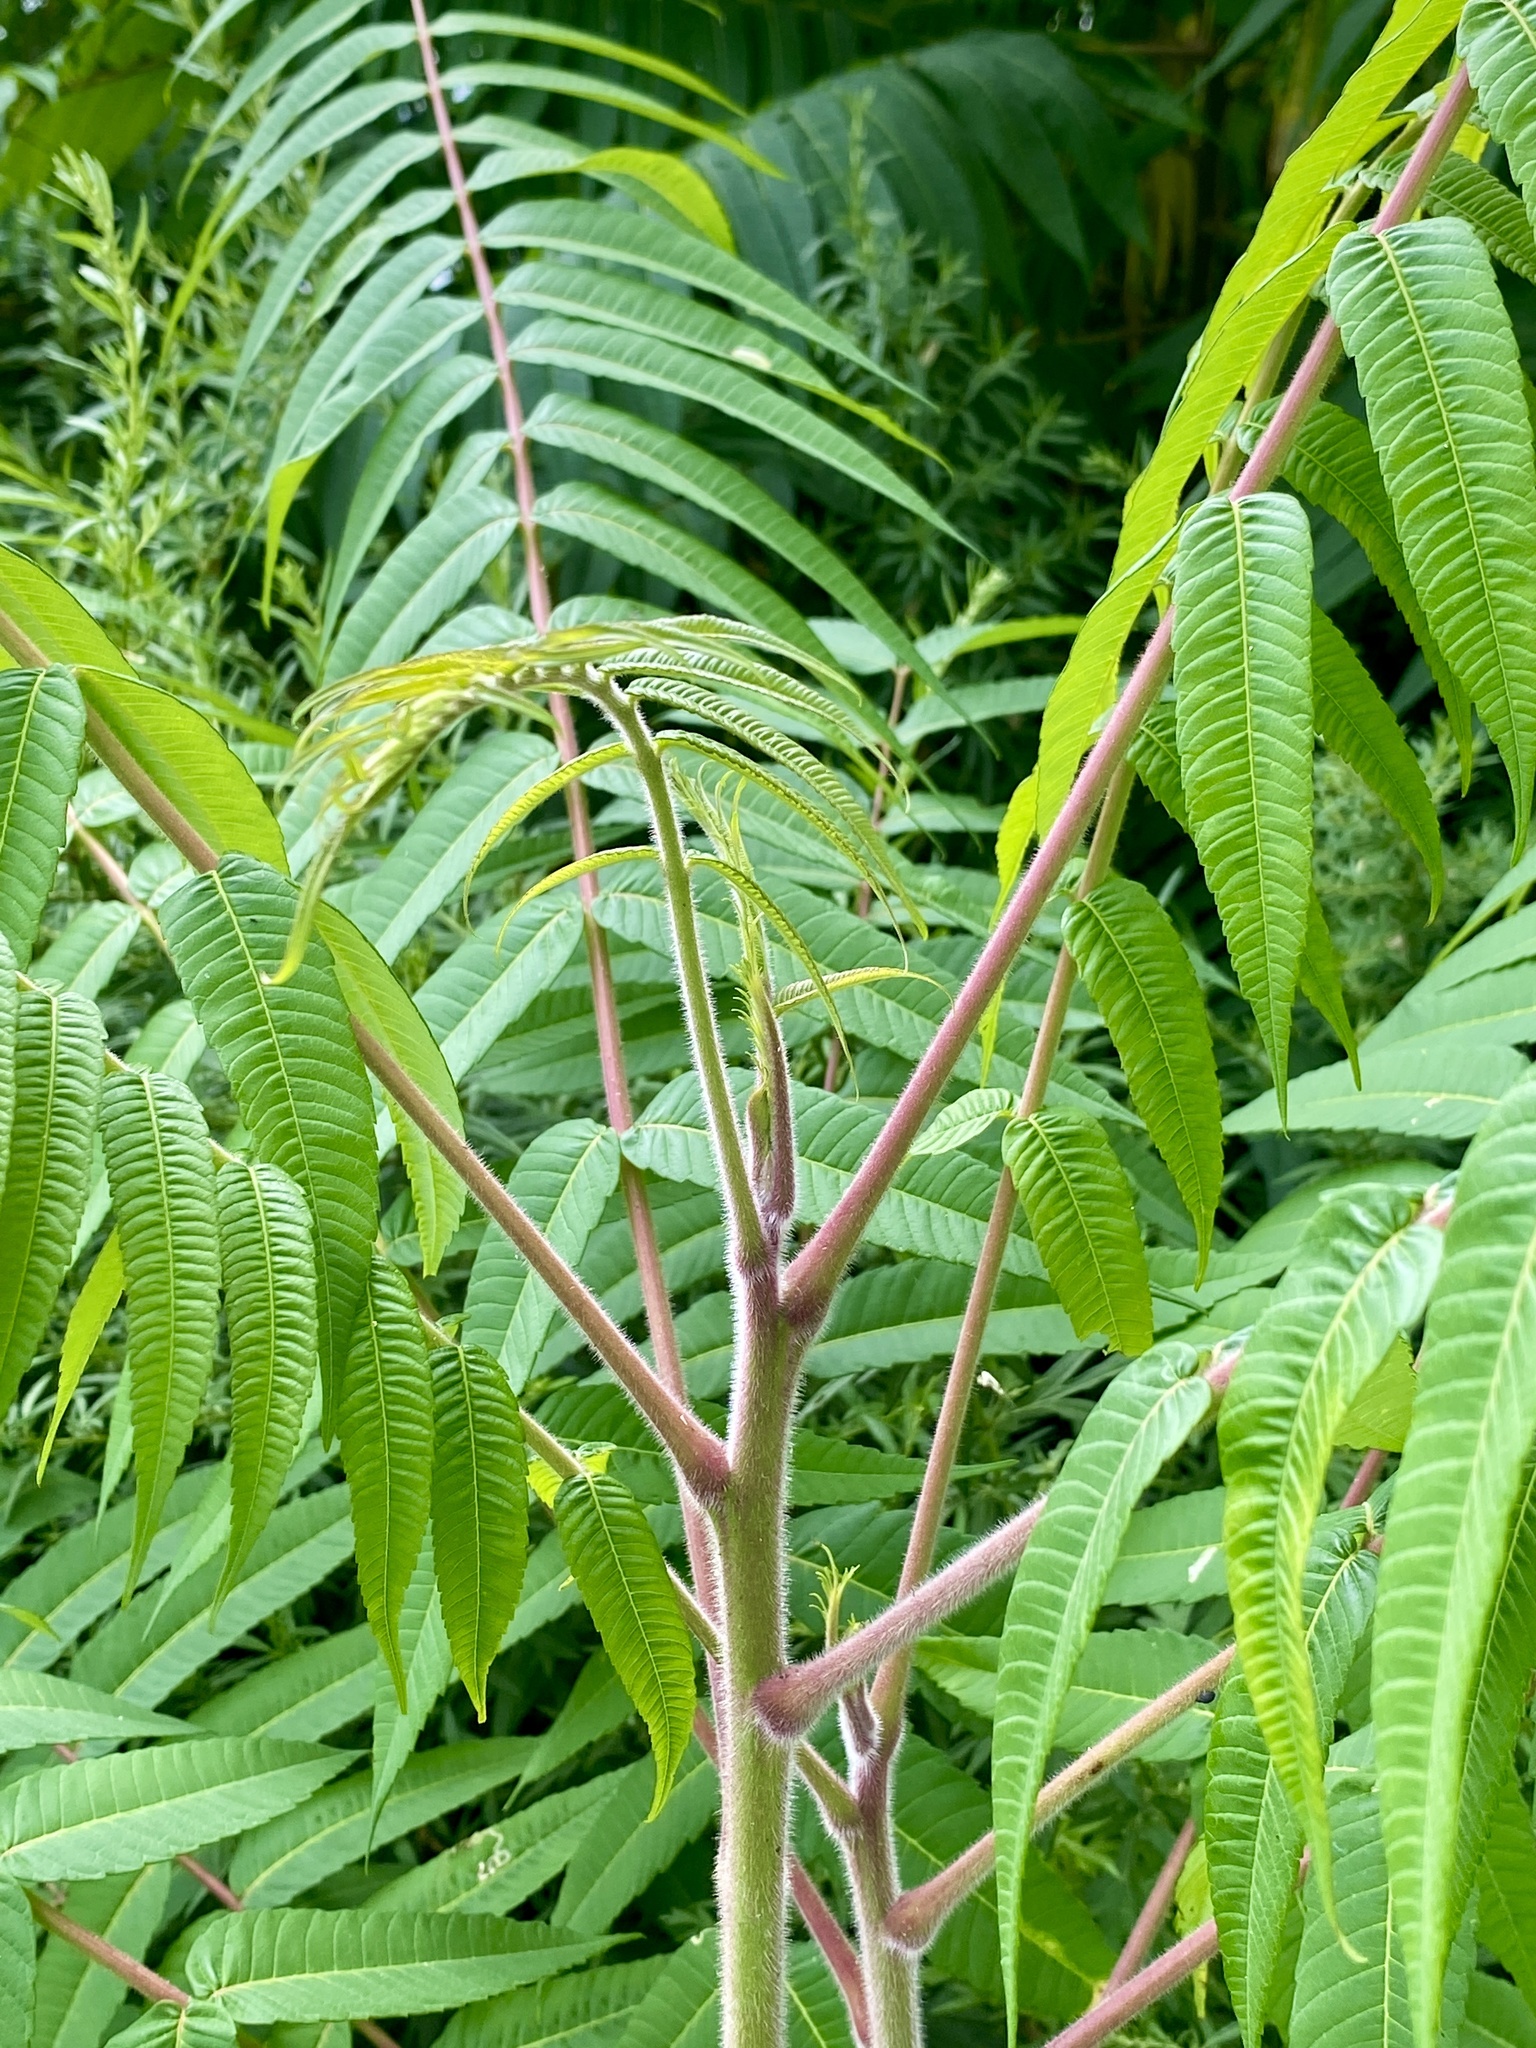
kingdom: Plantae
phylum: Tracheophyta
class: Magnoliopsida
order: Sapindales
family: Anacardiaceae
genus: Rhus
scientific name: Rhus typhina
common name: Staghorn sumac
